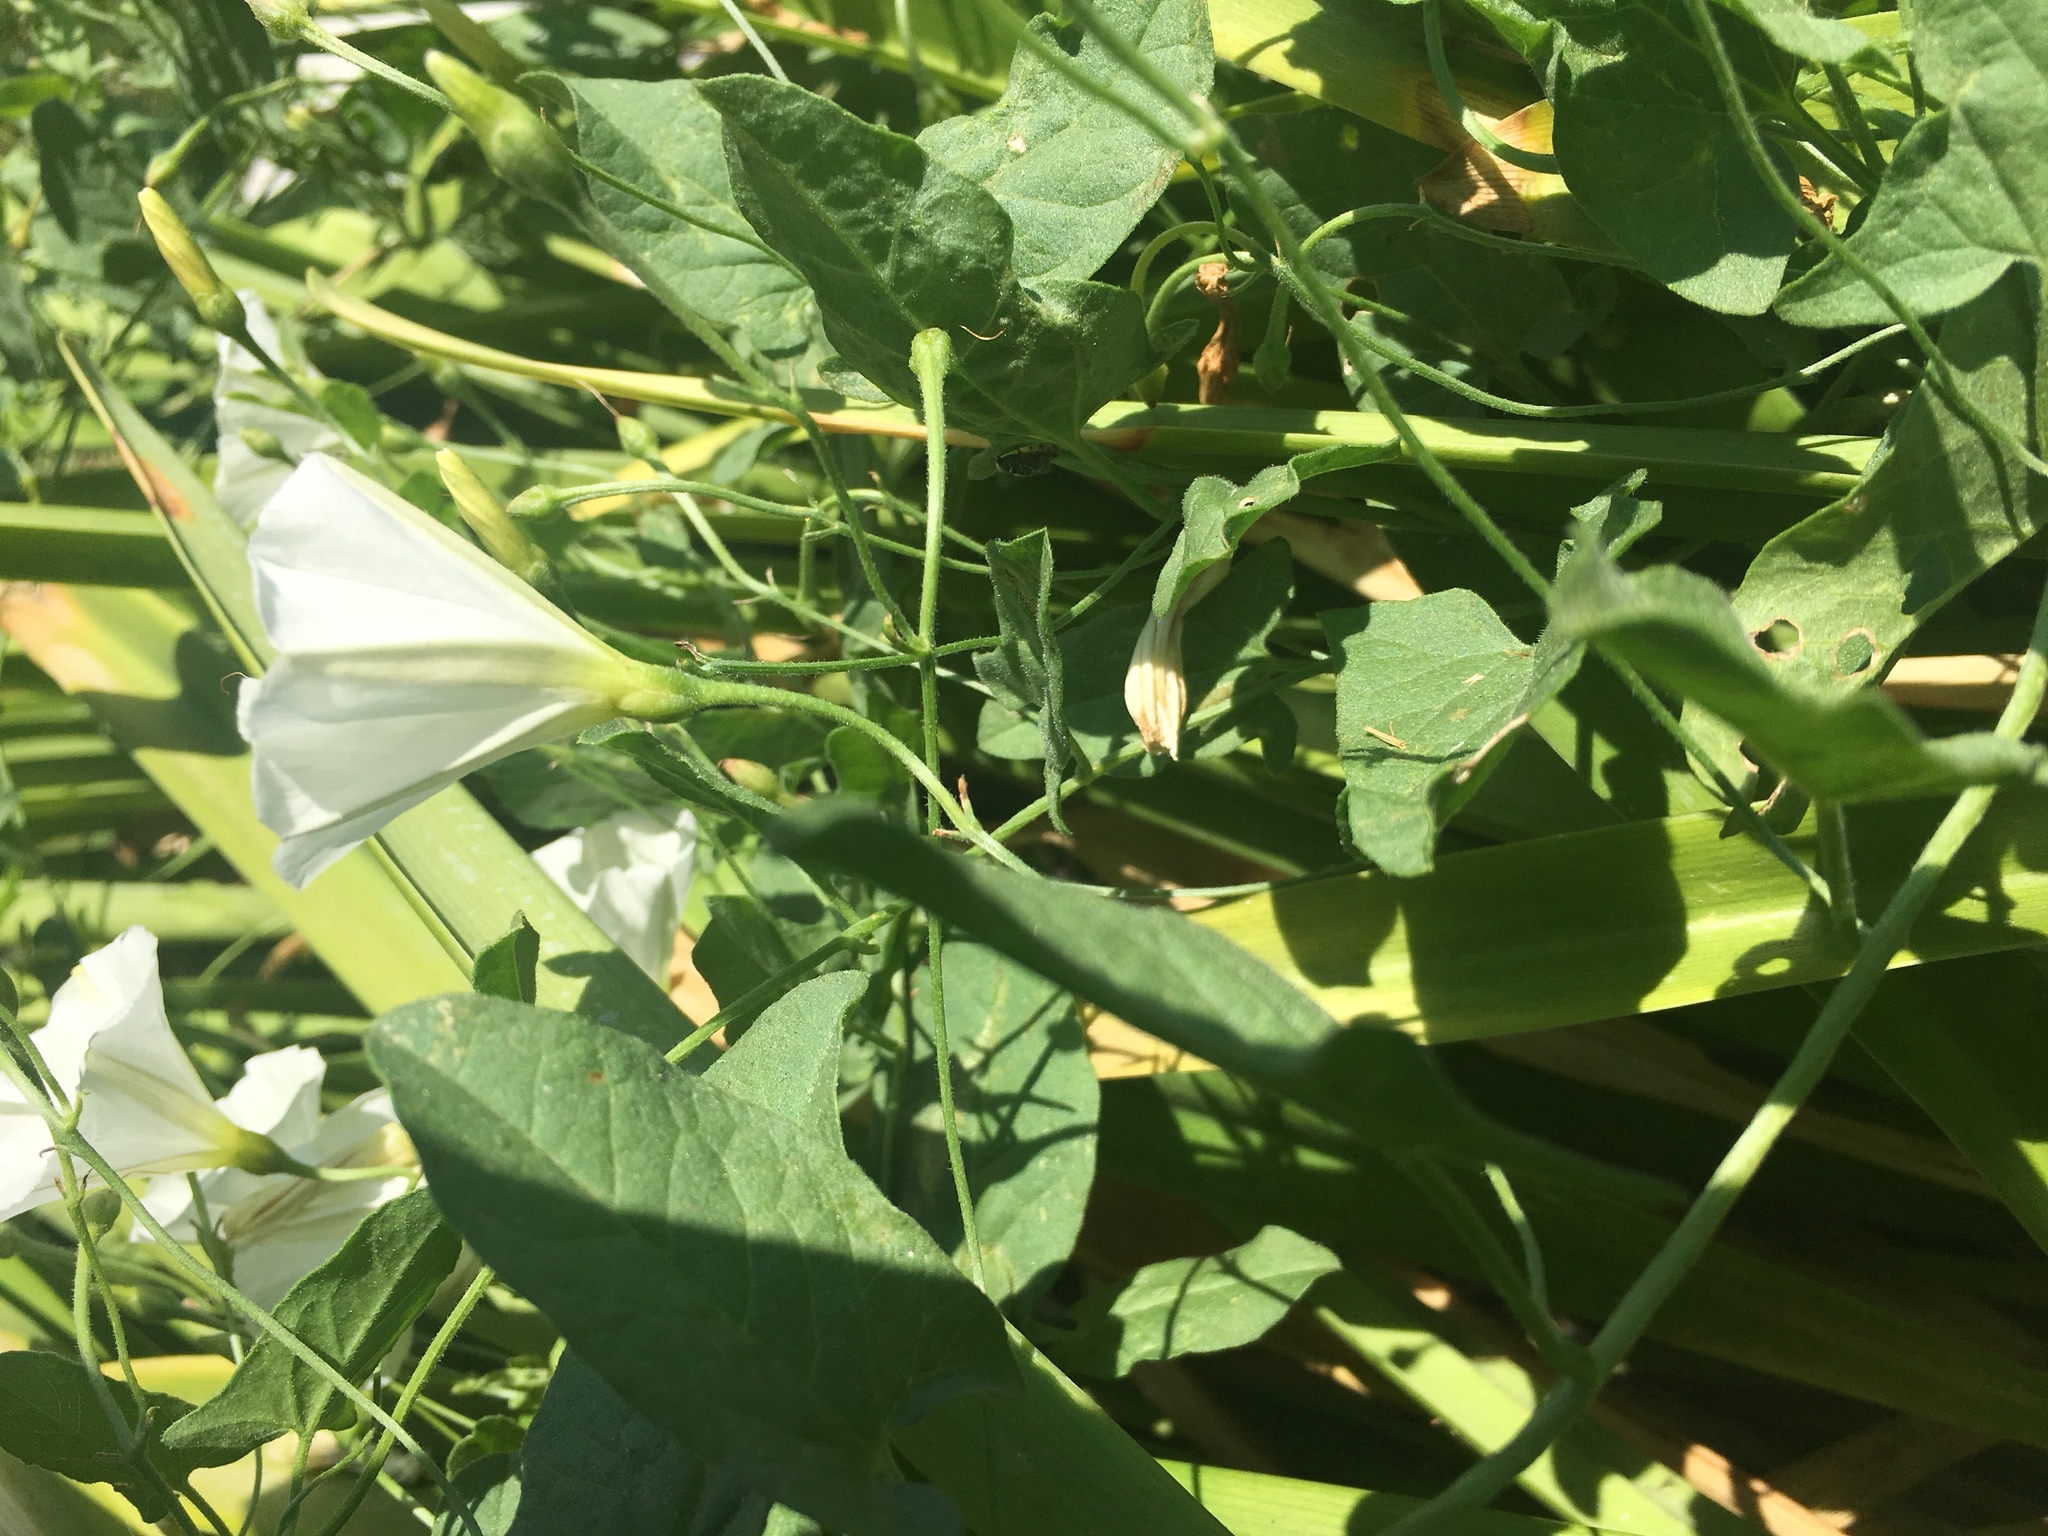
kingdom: Plantae
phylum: Tracheophyta
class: Magnoliopsida
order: Solanales
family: Convolvulaceae
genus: Convolvulus
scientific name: Convolvulus arvensis
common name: Field bindweed
